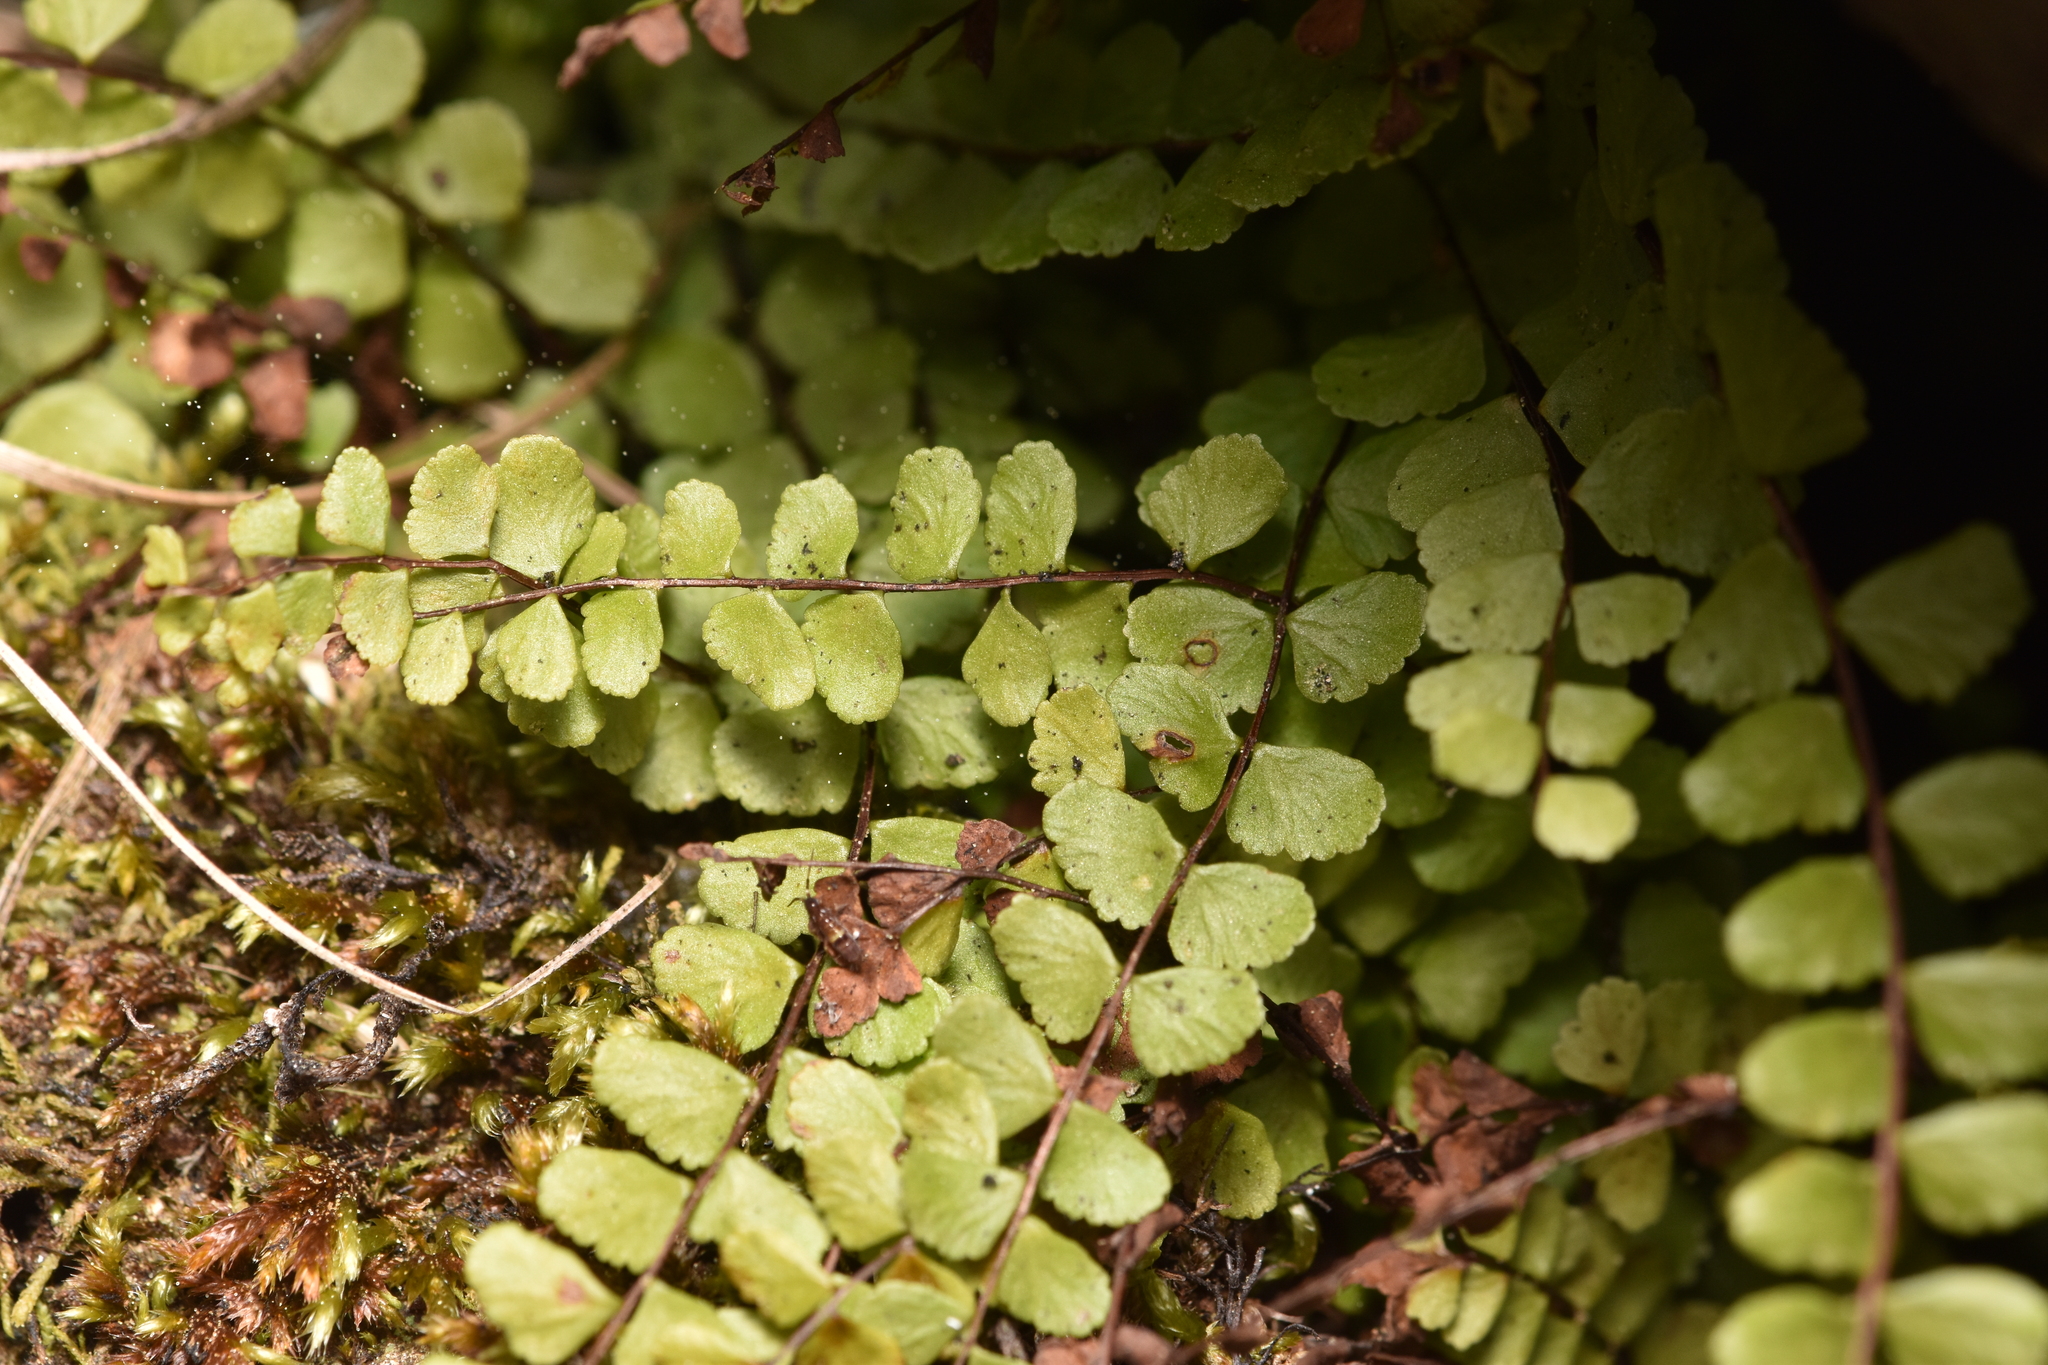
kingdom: Plantae
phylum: Tracheophyta
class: Polypodiopsida
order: Polypodiales
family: Aspleniaceae
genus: Asplenium
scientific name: Asplenium trichomanes
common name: Maidenhair spleenwort
